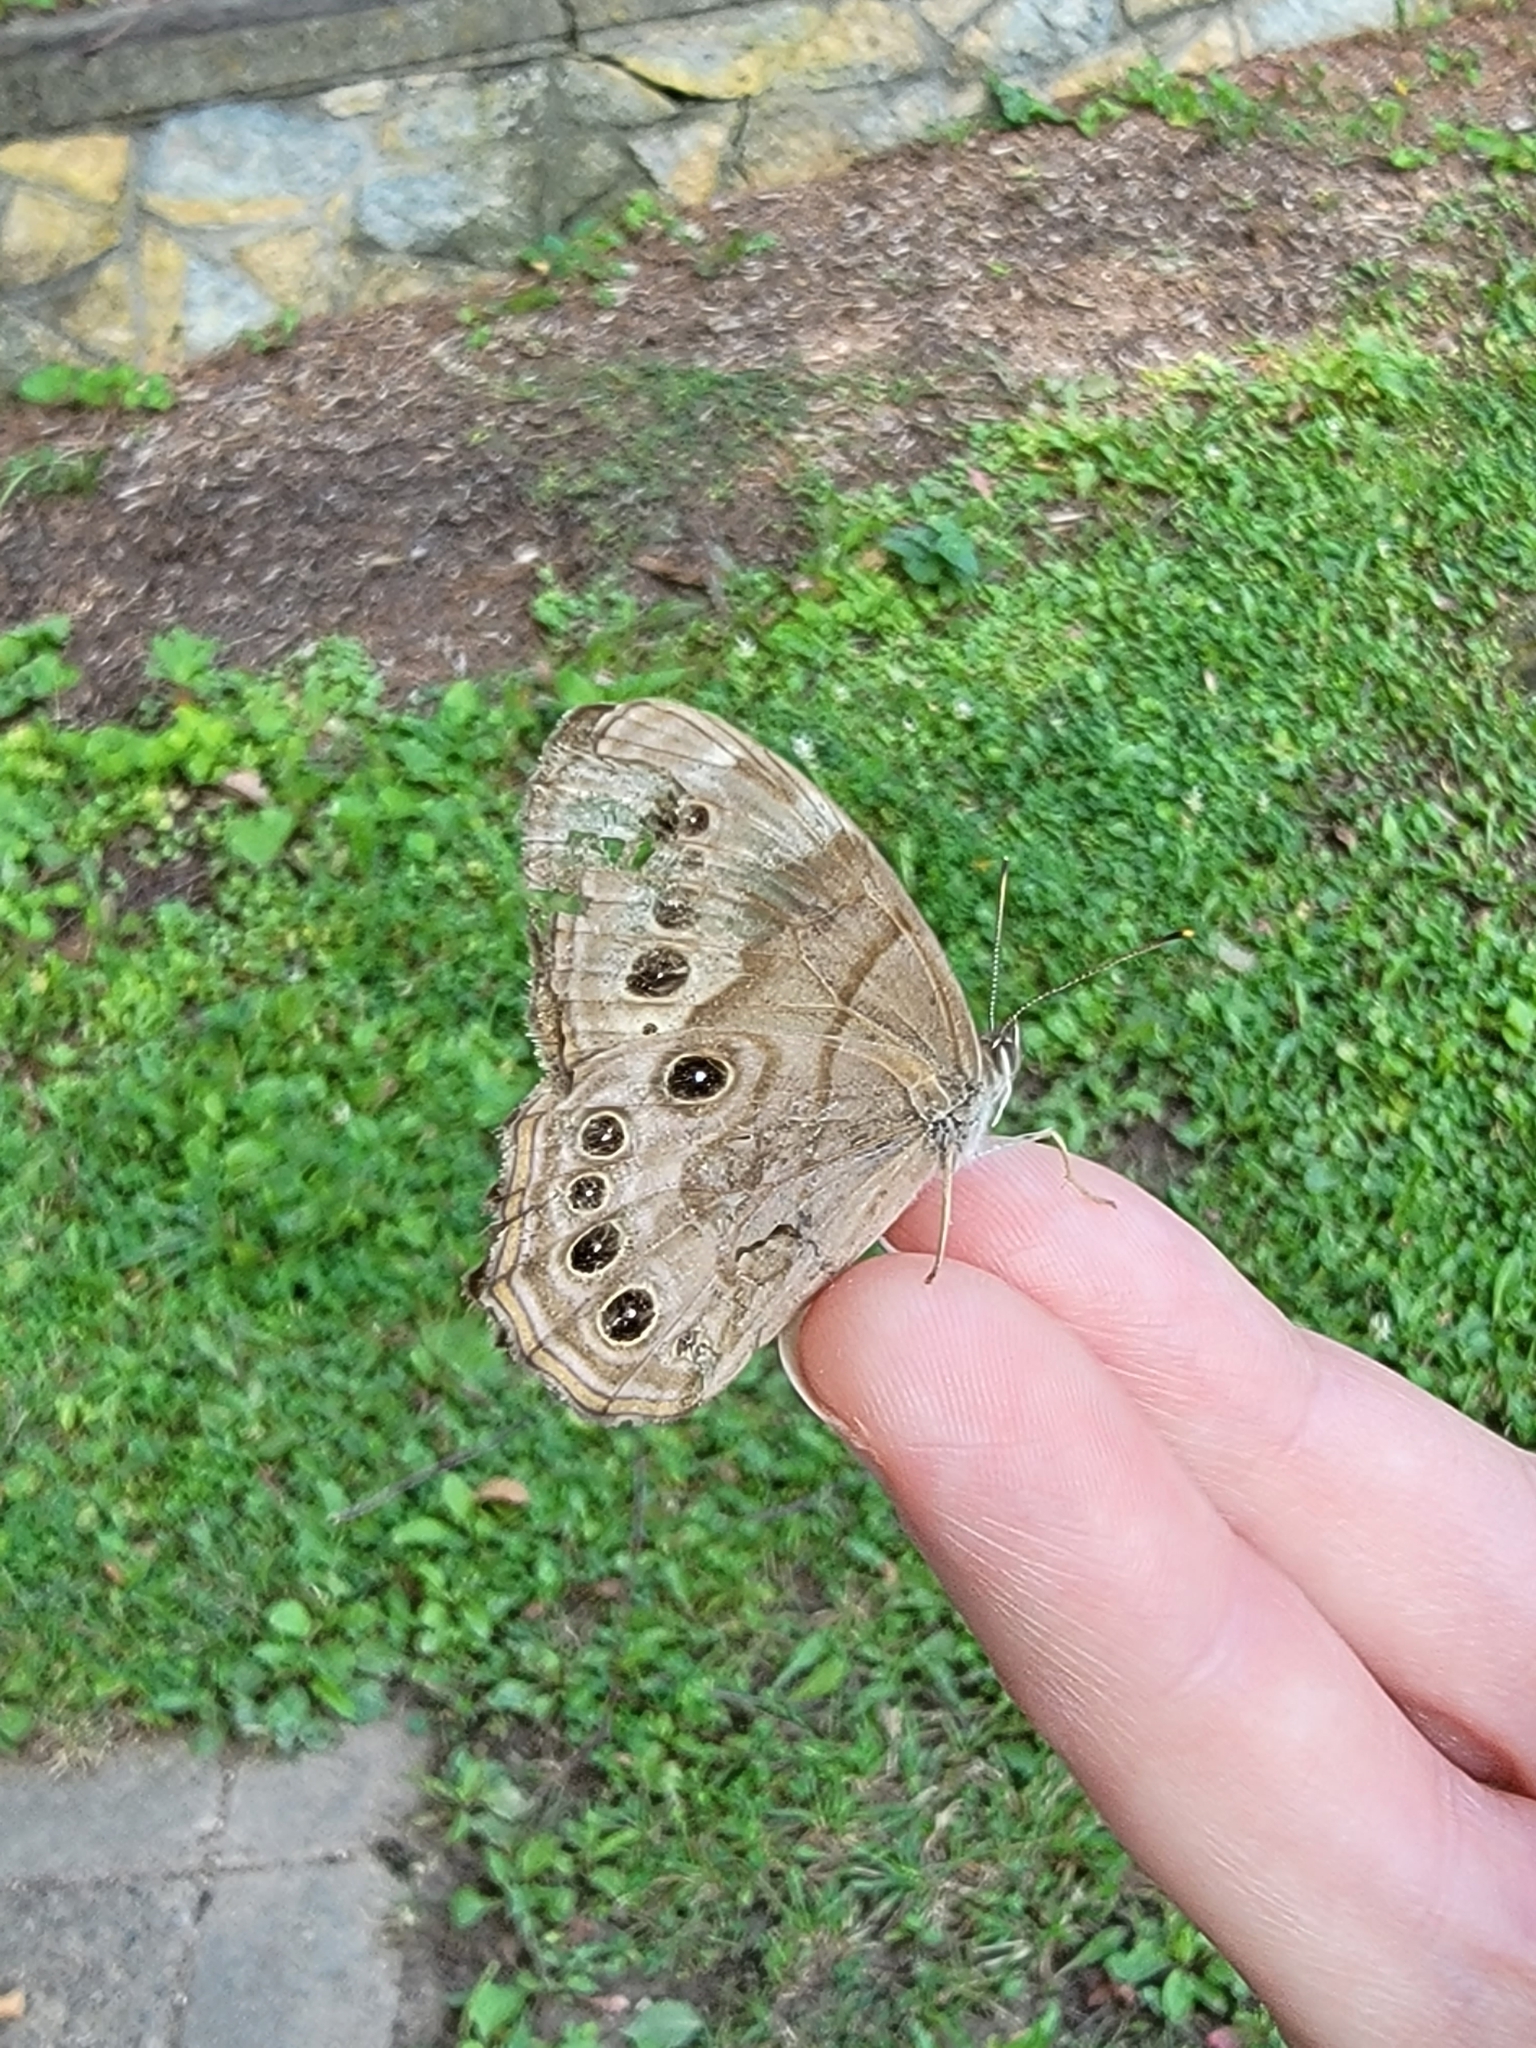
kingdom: Animalia
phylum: Arthropoda
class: Insecta
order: Lepidoptera
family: Nymphalidae
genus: Lethe
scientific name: Lethe anthedon
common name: Northern pearly-eye
